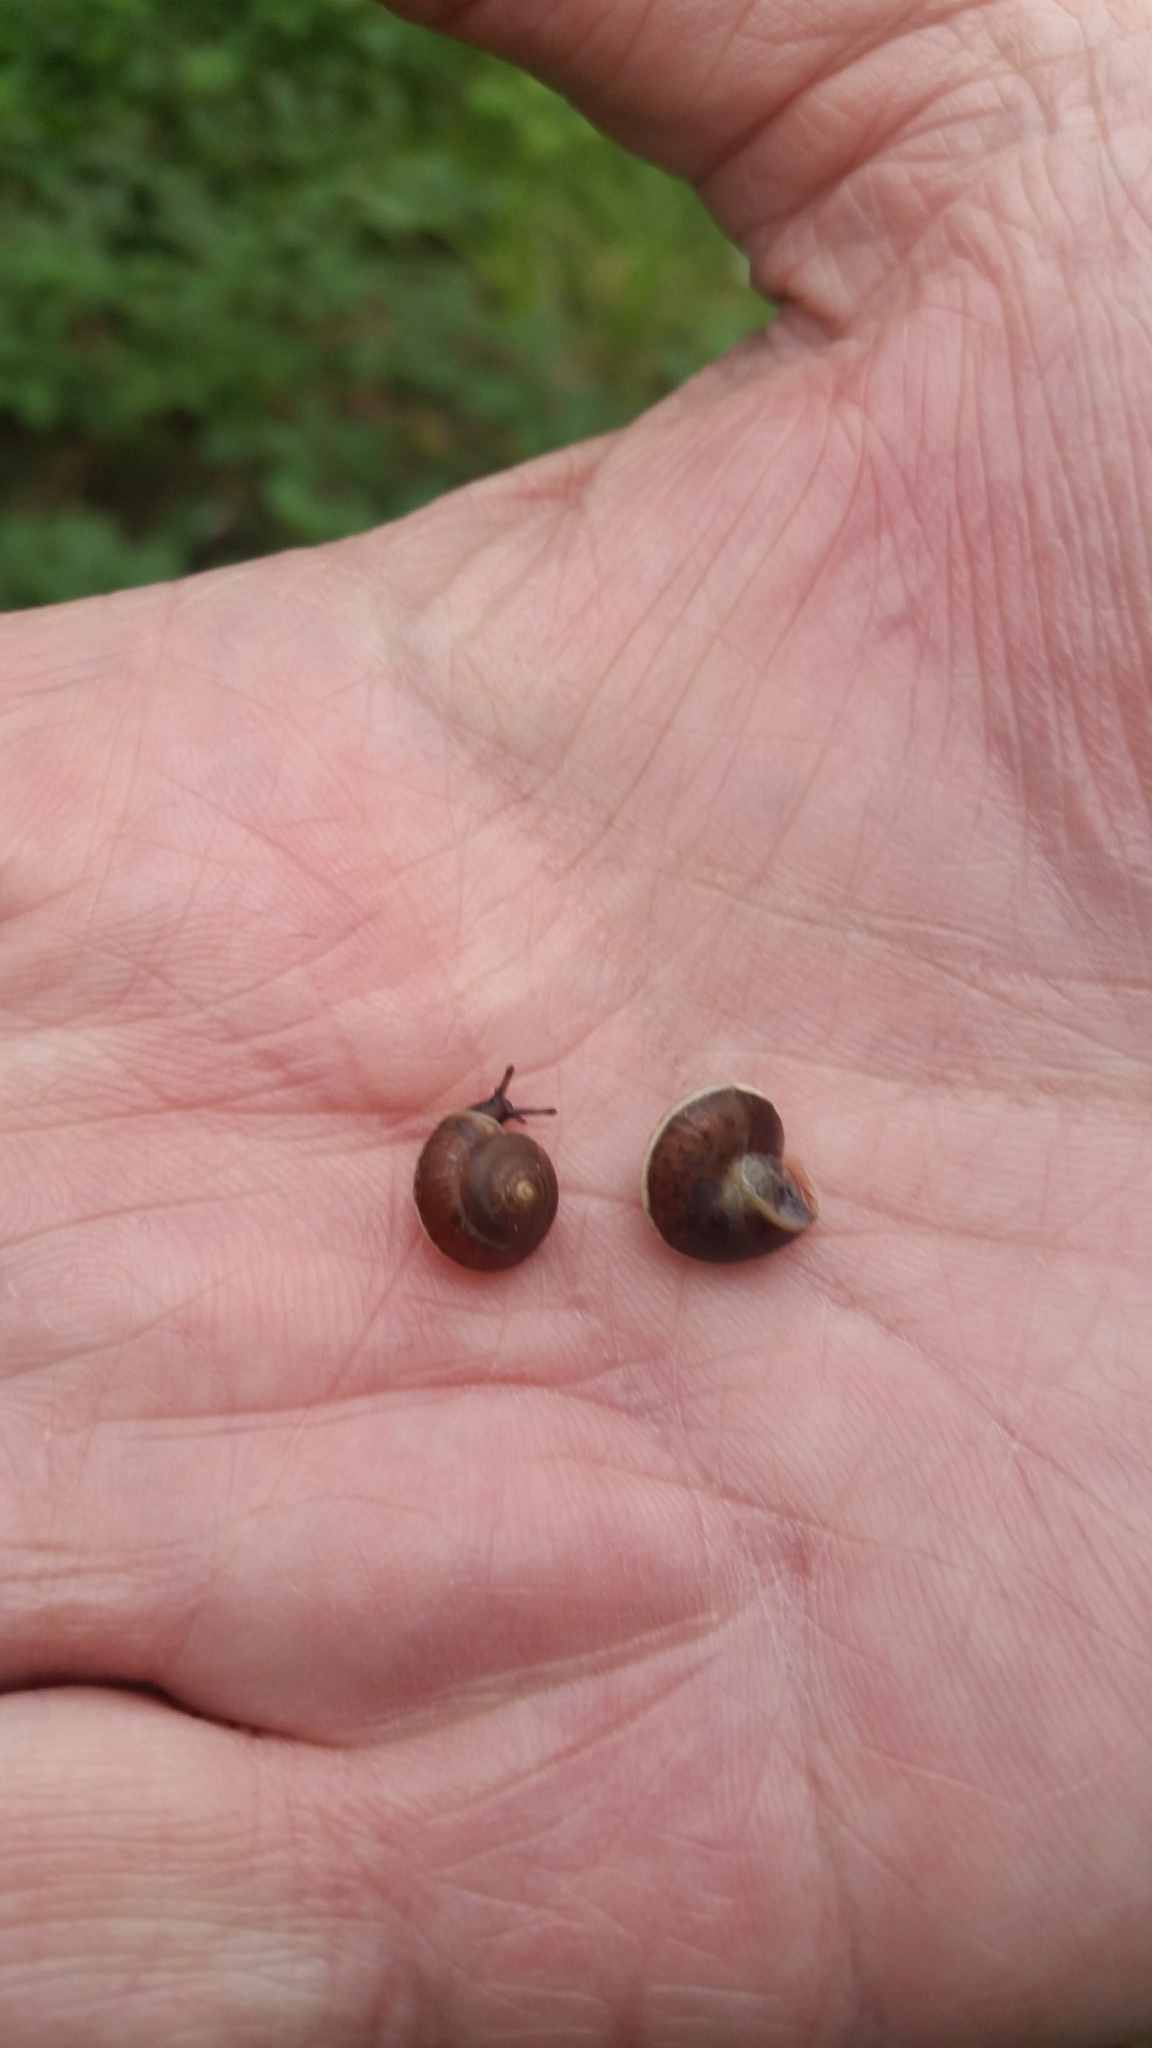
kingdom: Animalia
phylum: Mollusca
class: Gastropoda
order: Stylommatophora
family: Hygromiidae
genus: Hygromia
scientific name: Hygromia cinctella
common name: Girdled snail
